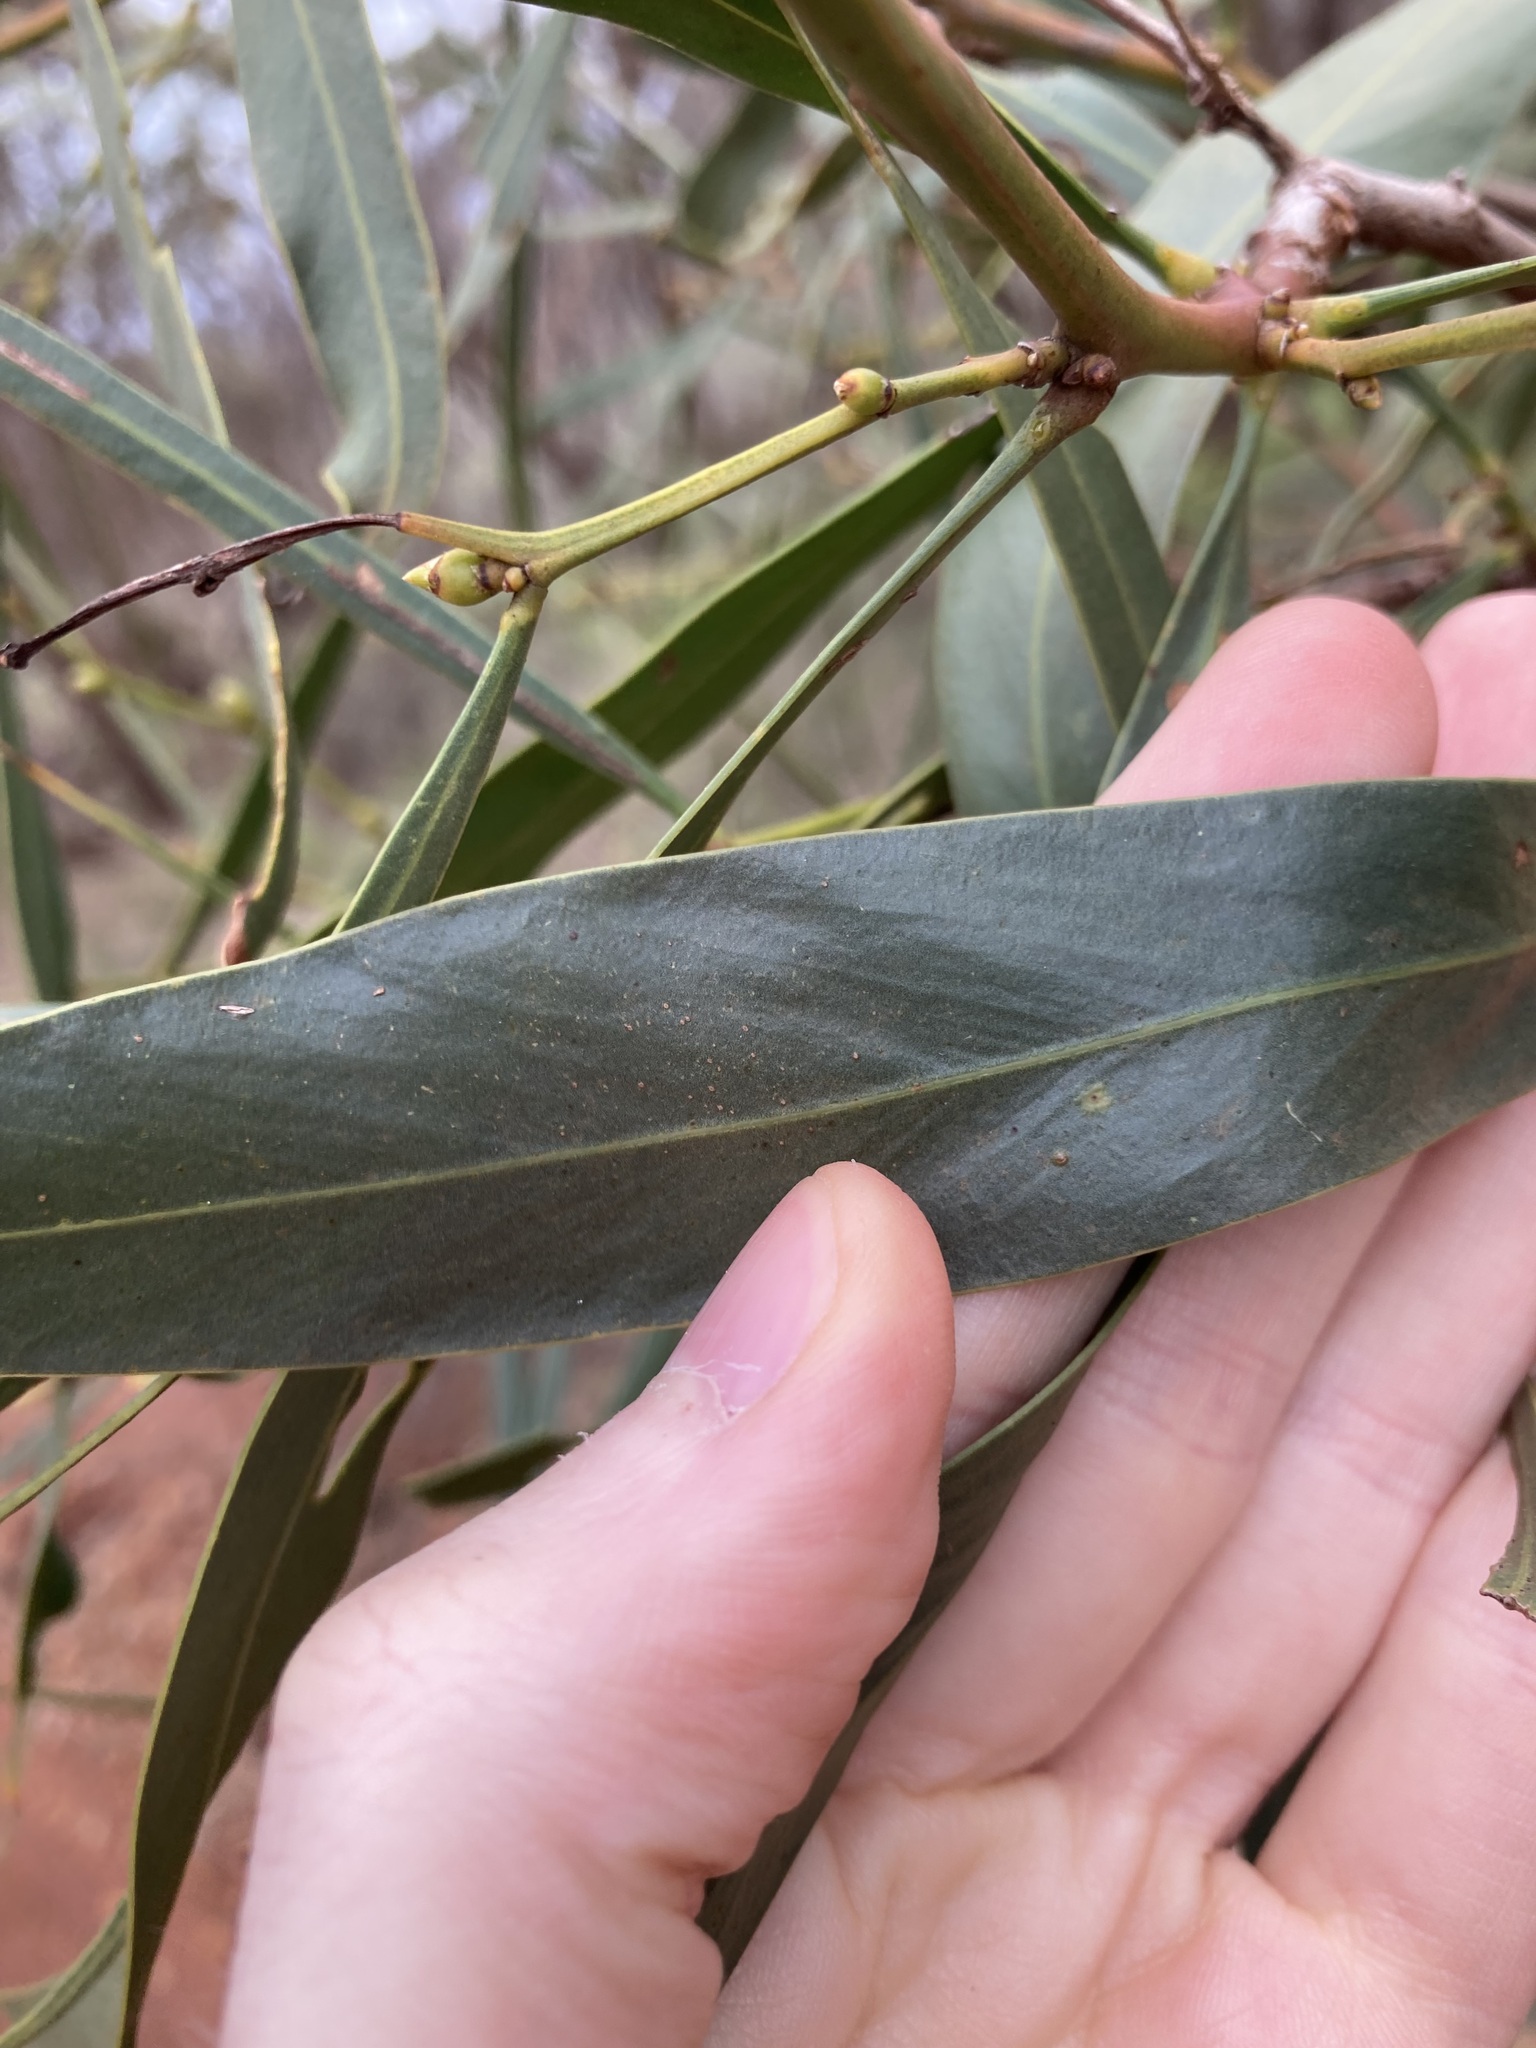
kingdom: Plantae
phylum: Tracheophyta
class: Magnoliopsida
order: Fabales
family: Fabaceae
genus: Acacia
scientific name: Acacia saligna
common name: Orange wattle
